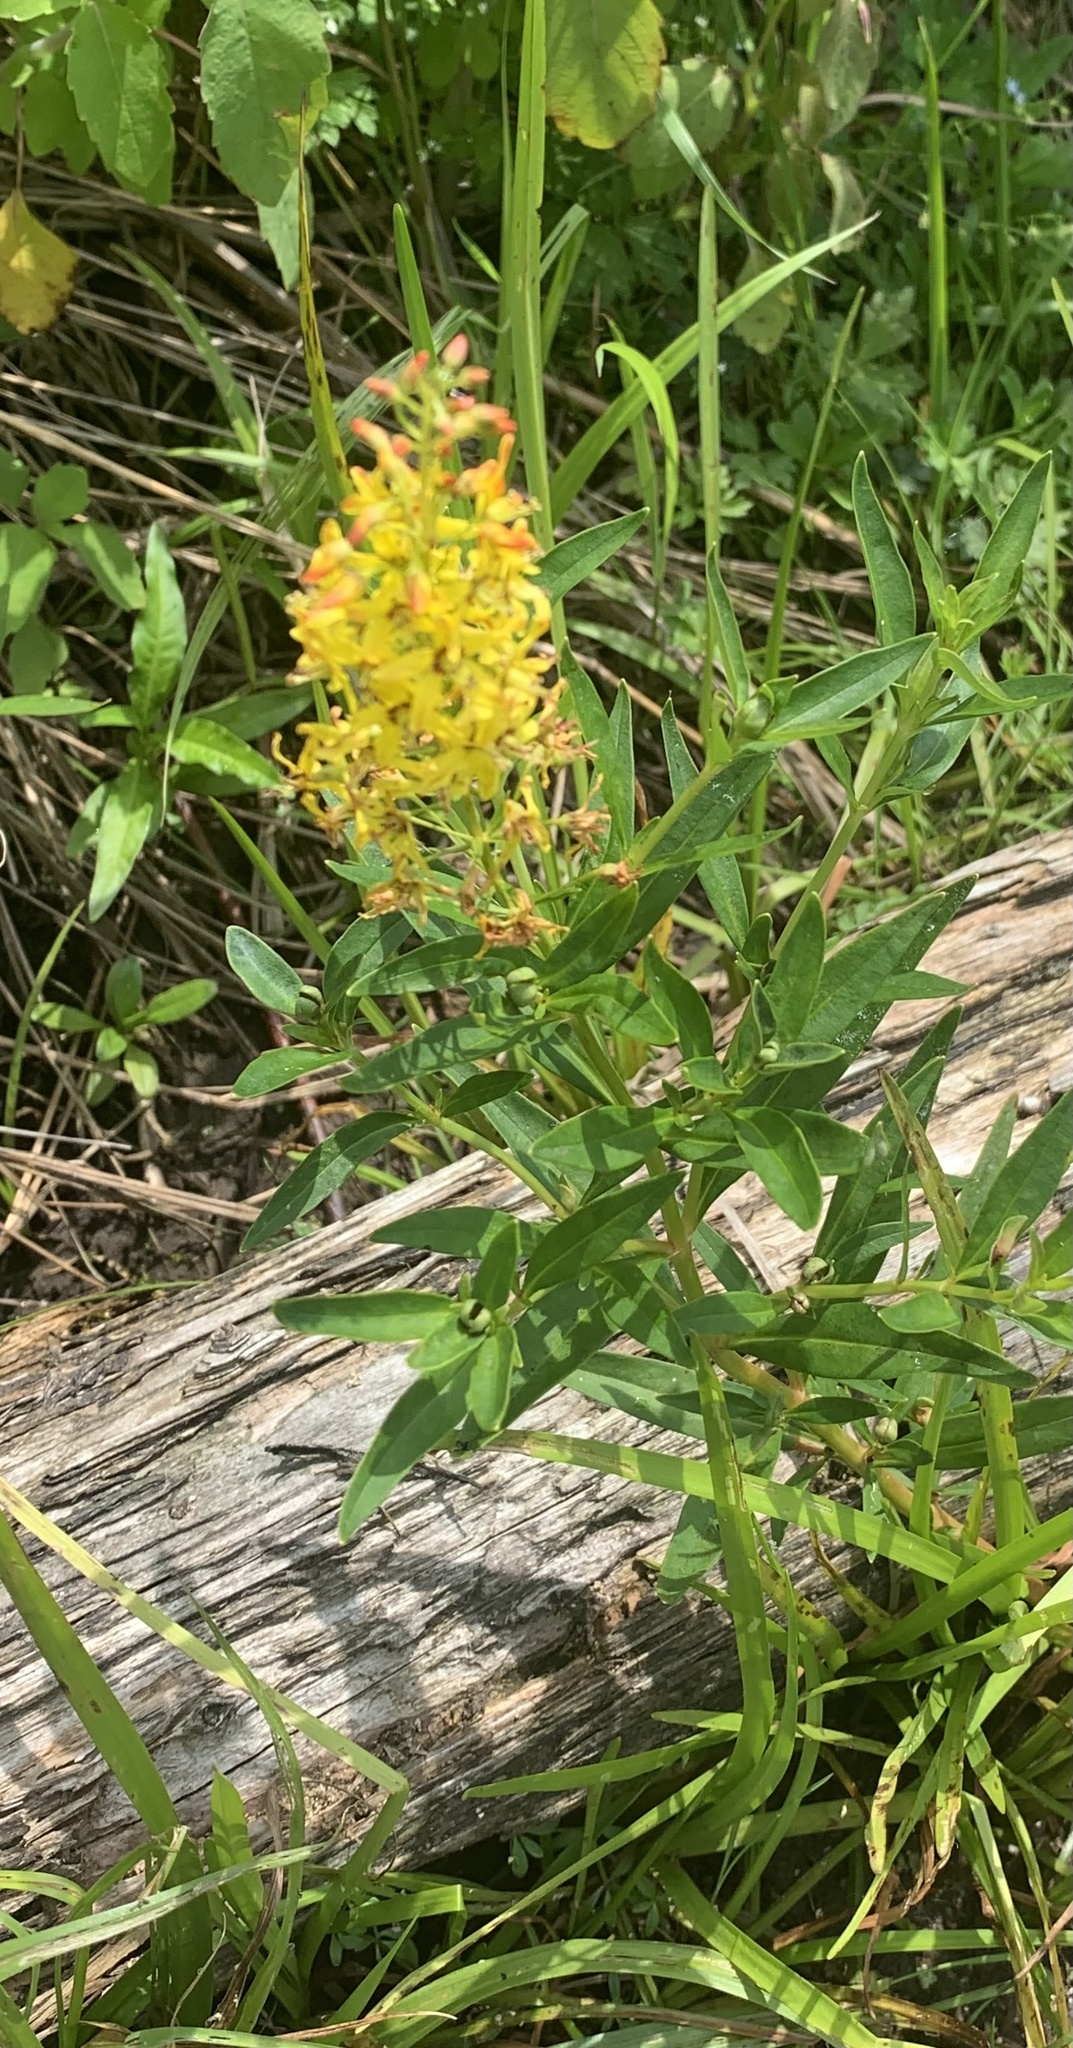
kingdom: Plantae
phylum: Tracheophyta
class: Magnoliopsida
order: Ericales
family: Primulaceae
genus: Lysimachia
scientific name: Lysimachia terrestris
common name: Lake loosestrife
